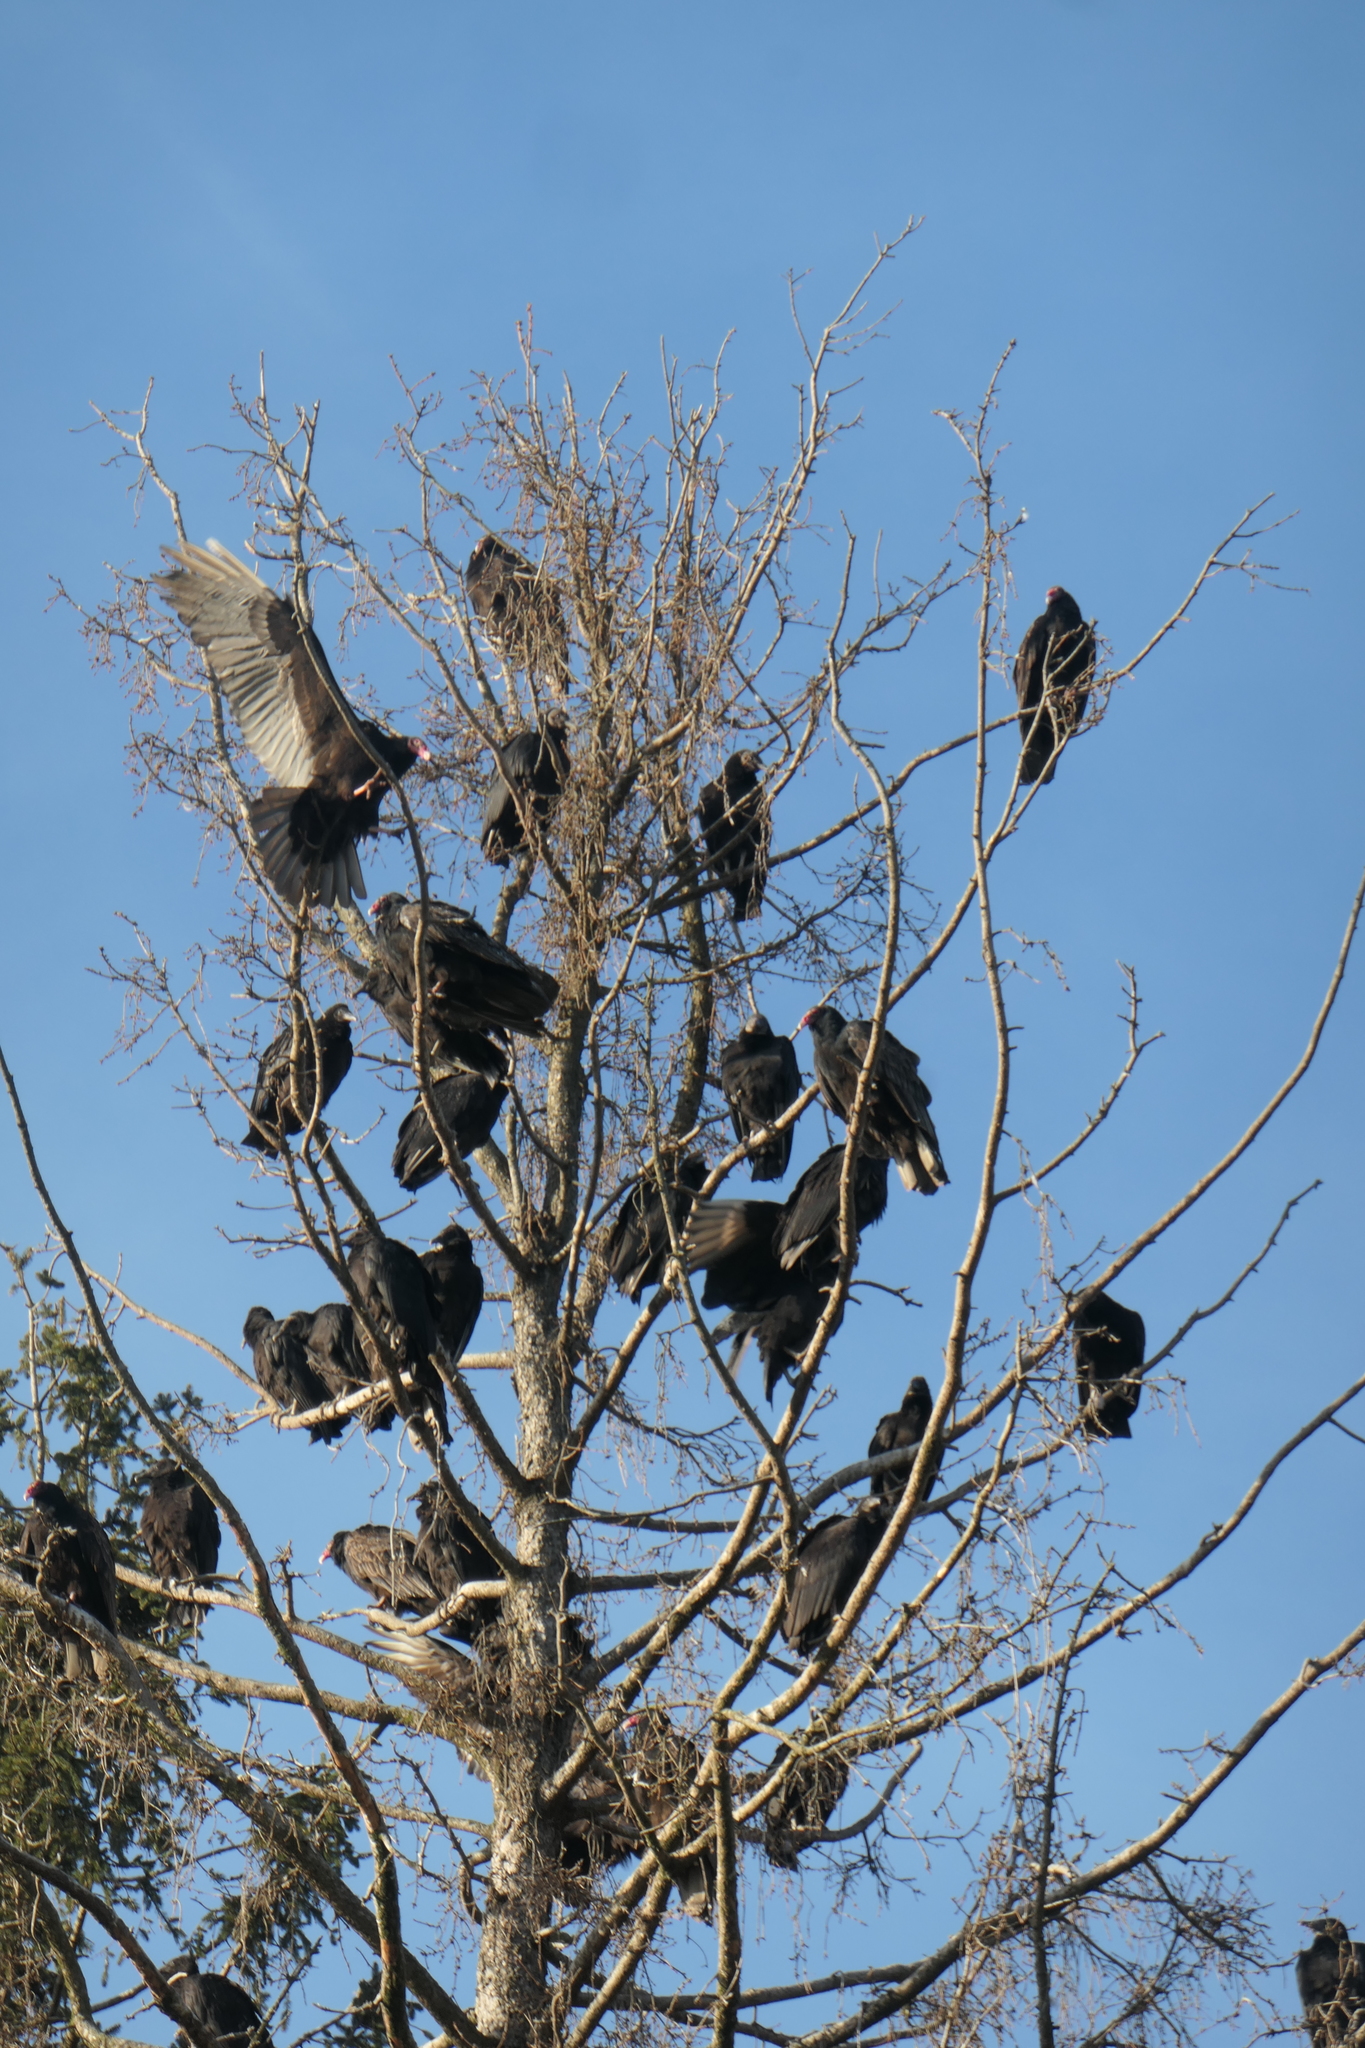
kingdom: Animalia
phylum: Chordata
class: Aves
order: Accipitriformes
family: Cathartidae
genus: Cathartes
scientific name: Cathartes aura
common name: Turkey vulture
